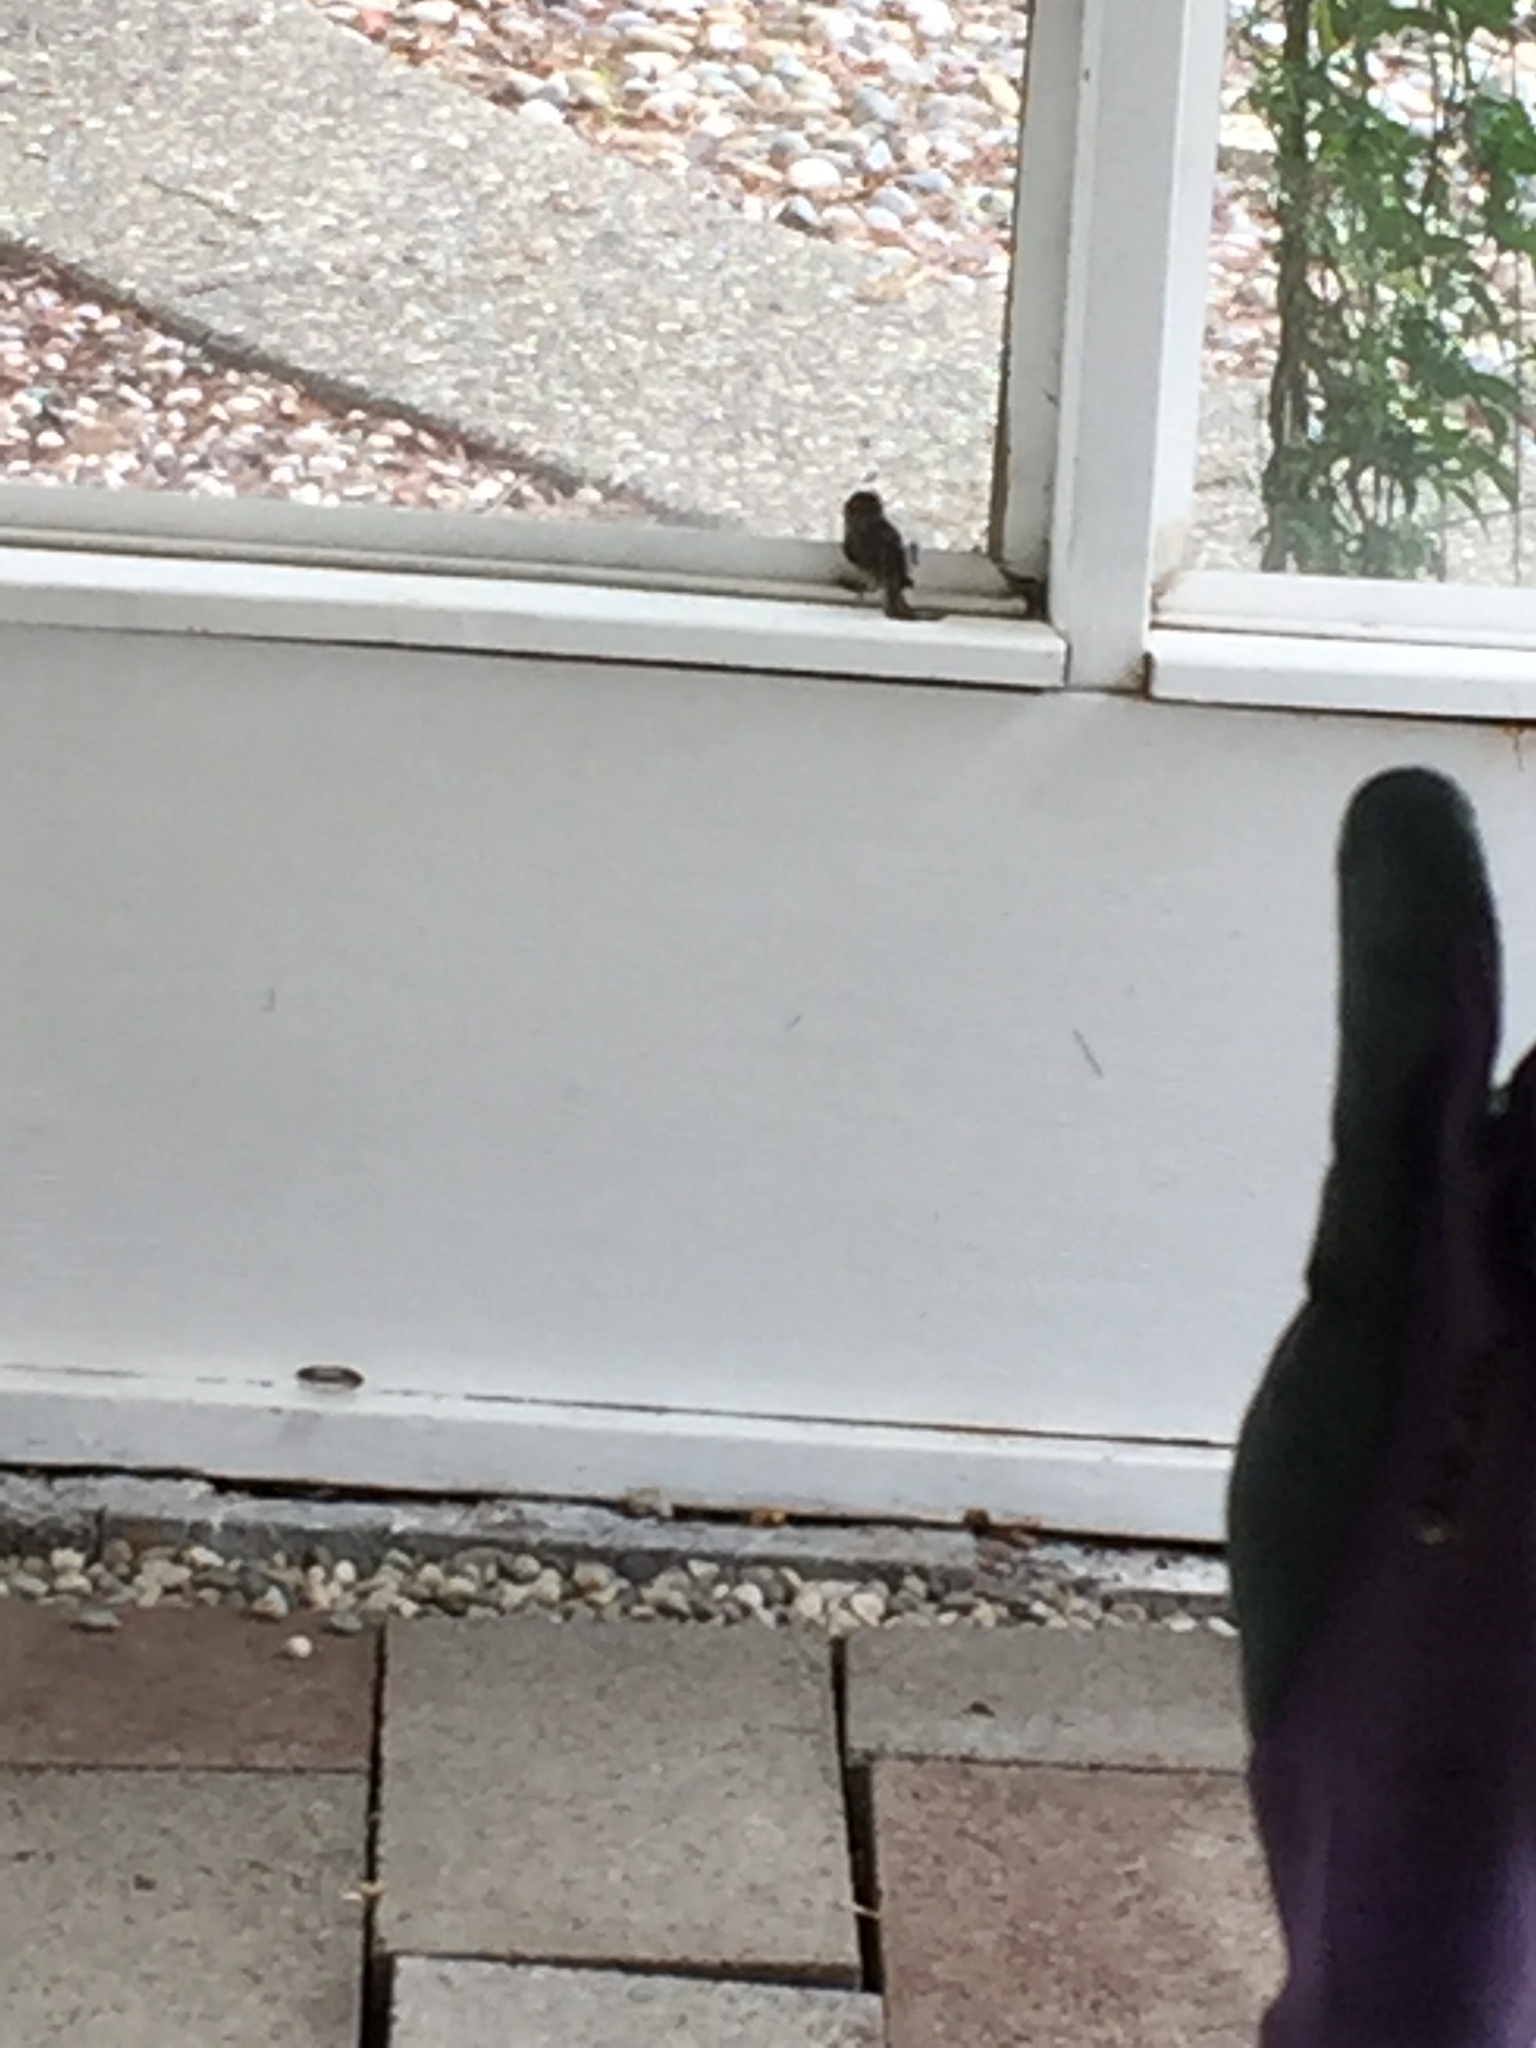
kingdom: Animalia
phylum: Chordata
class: Aves
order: Passeriformes
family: Aegithalidae
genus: Psaltriparus
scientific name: Psaltriparus minimus
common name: American bushtit
